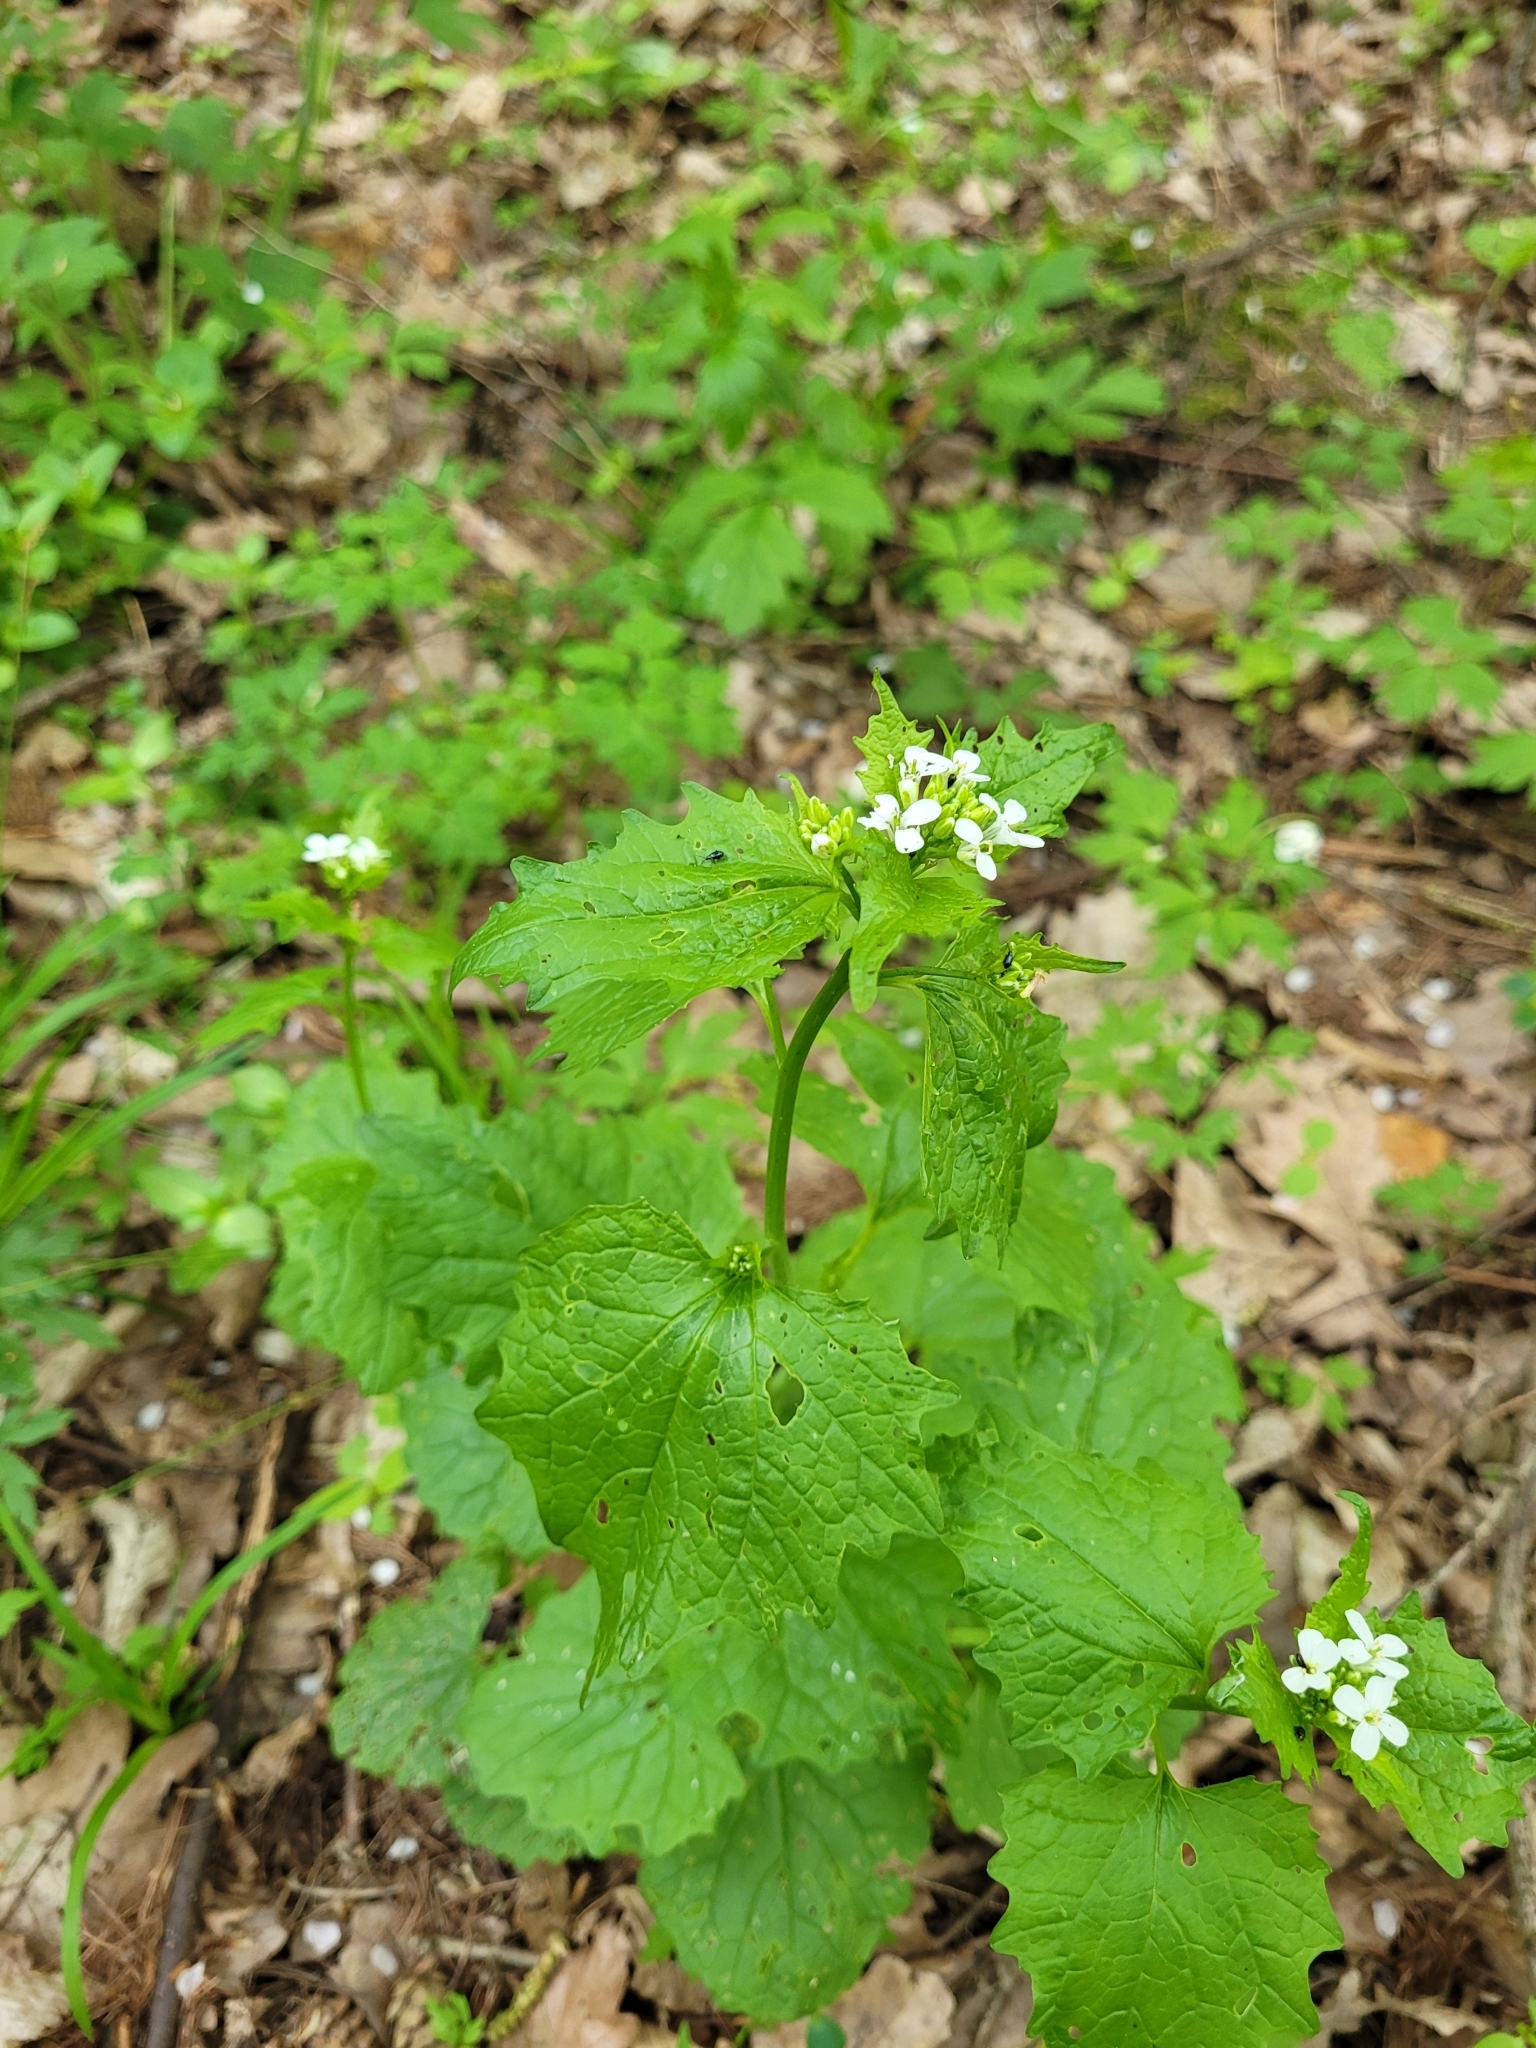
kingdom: Plantae
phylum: Tracheophyta
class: Magnoliopsida
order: Brassicales
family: Brassicaceae
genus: Alliaria
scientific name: Alliaria petiolata
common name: Garlic mustard
